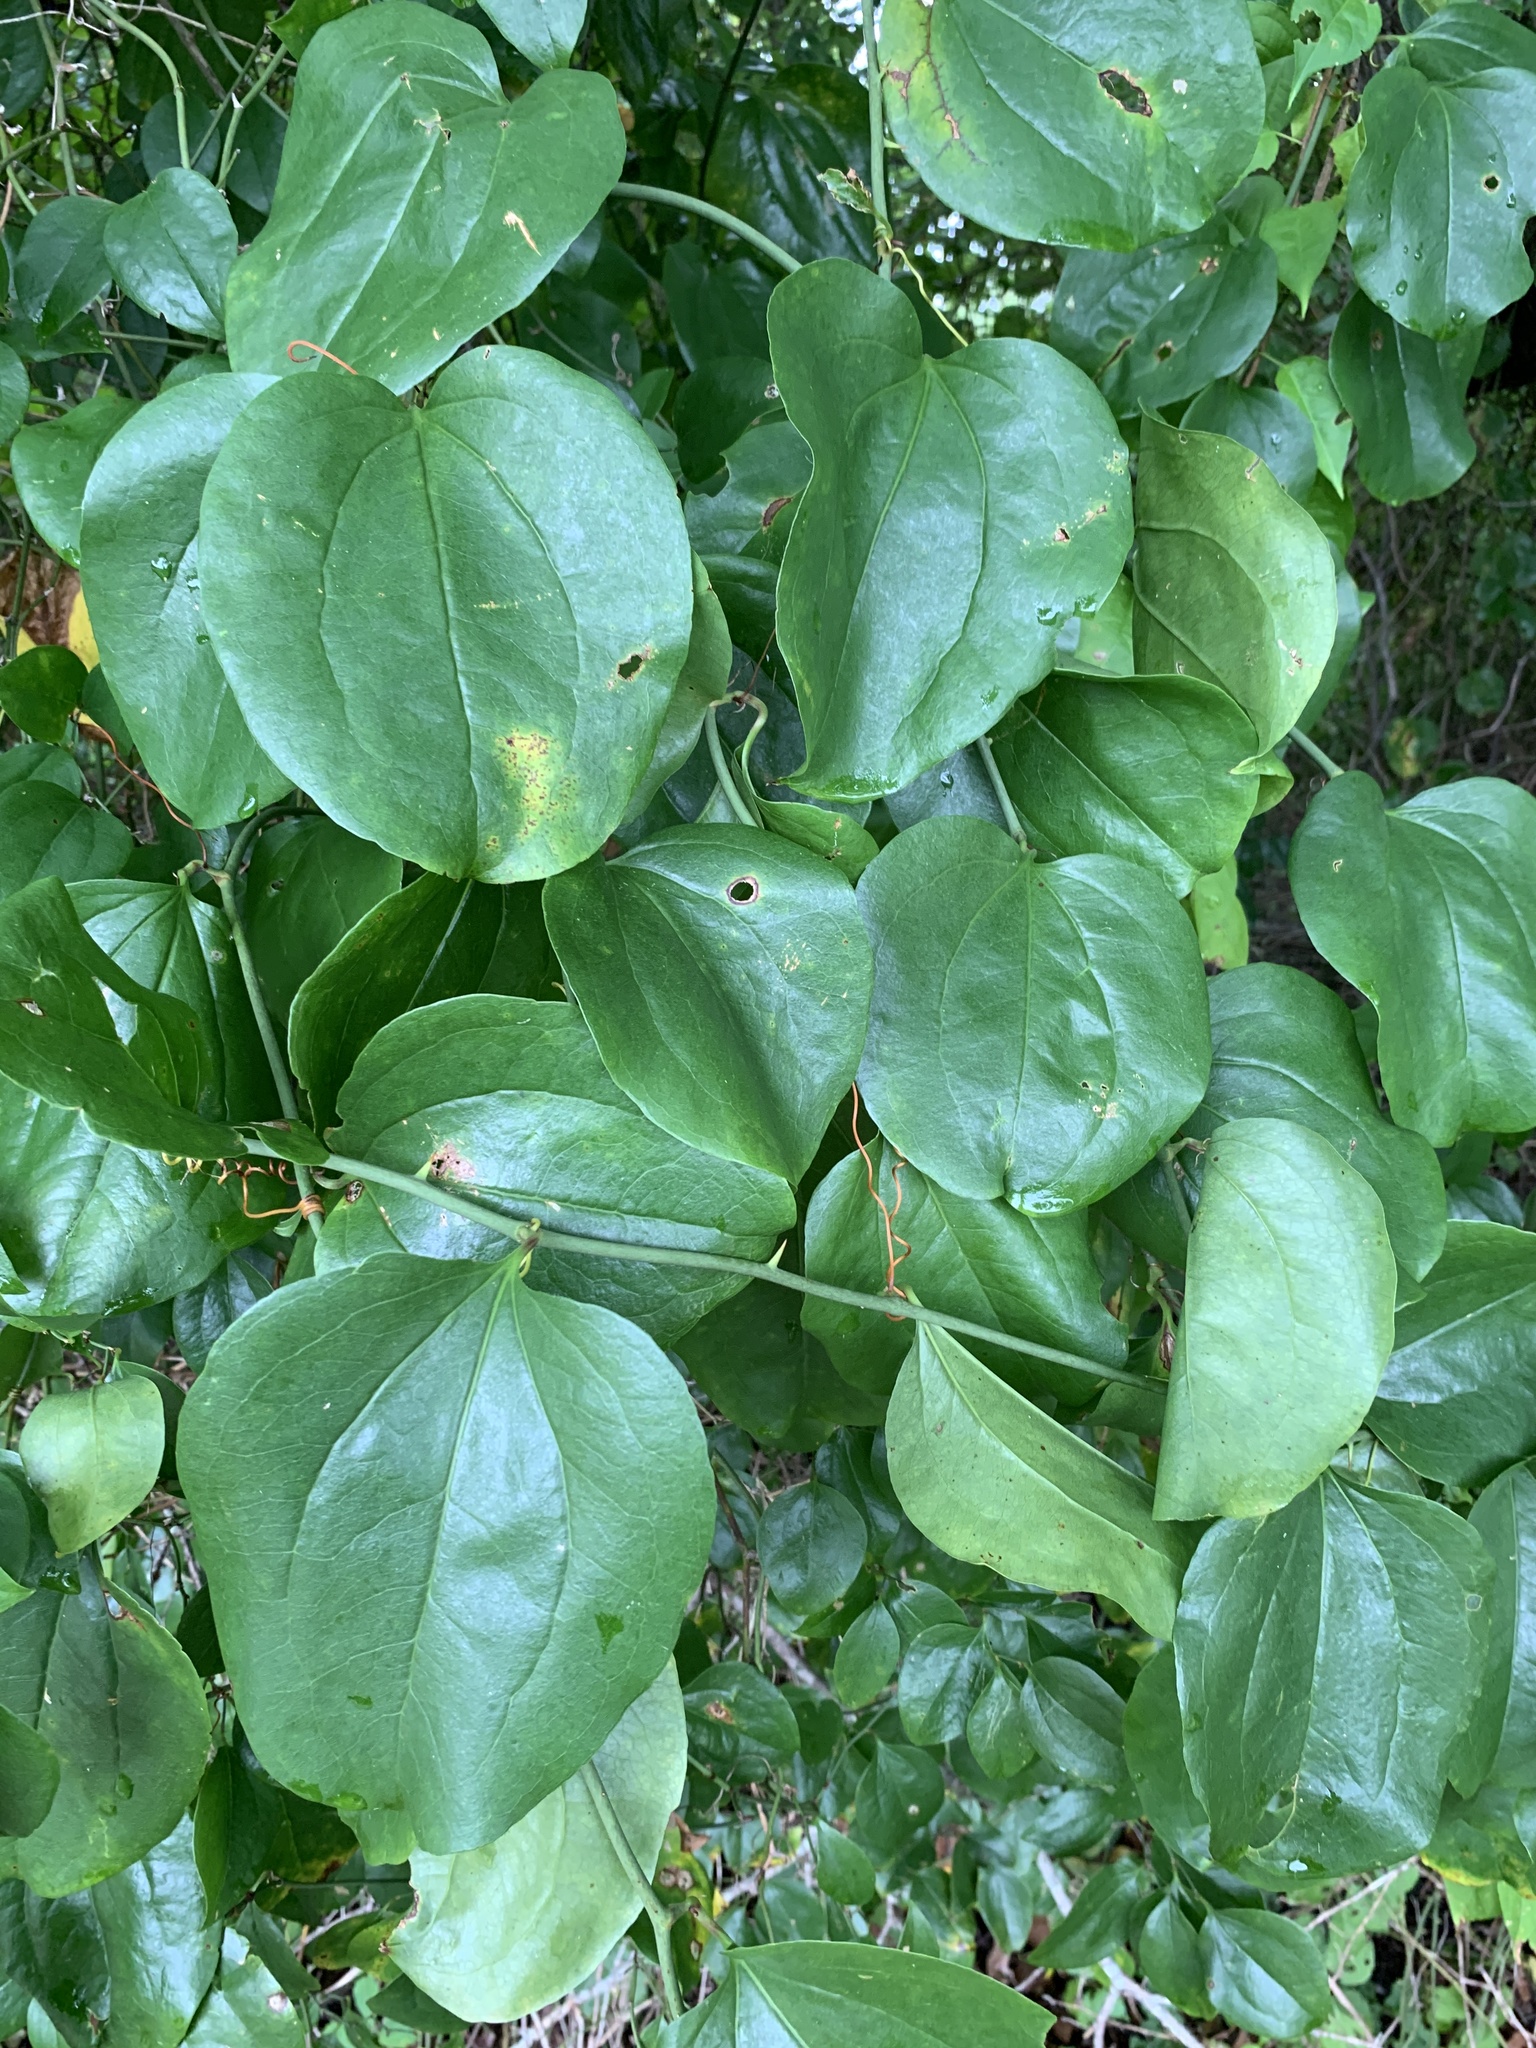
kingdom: Plantae
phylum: Tracheophyta
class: Liliopsida
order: Liliales
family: Smilacaceae
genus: Smilax
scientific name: Smilax rotundifolia
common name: Bullbriar
